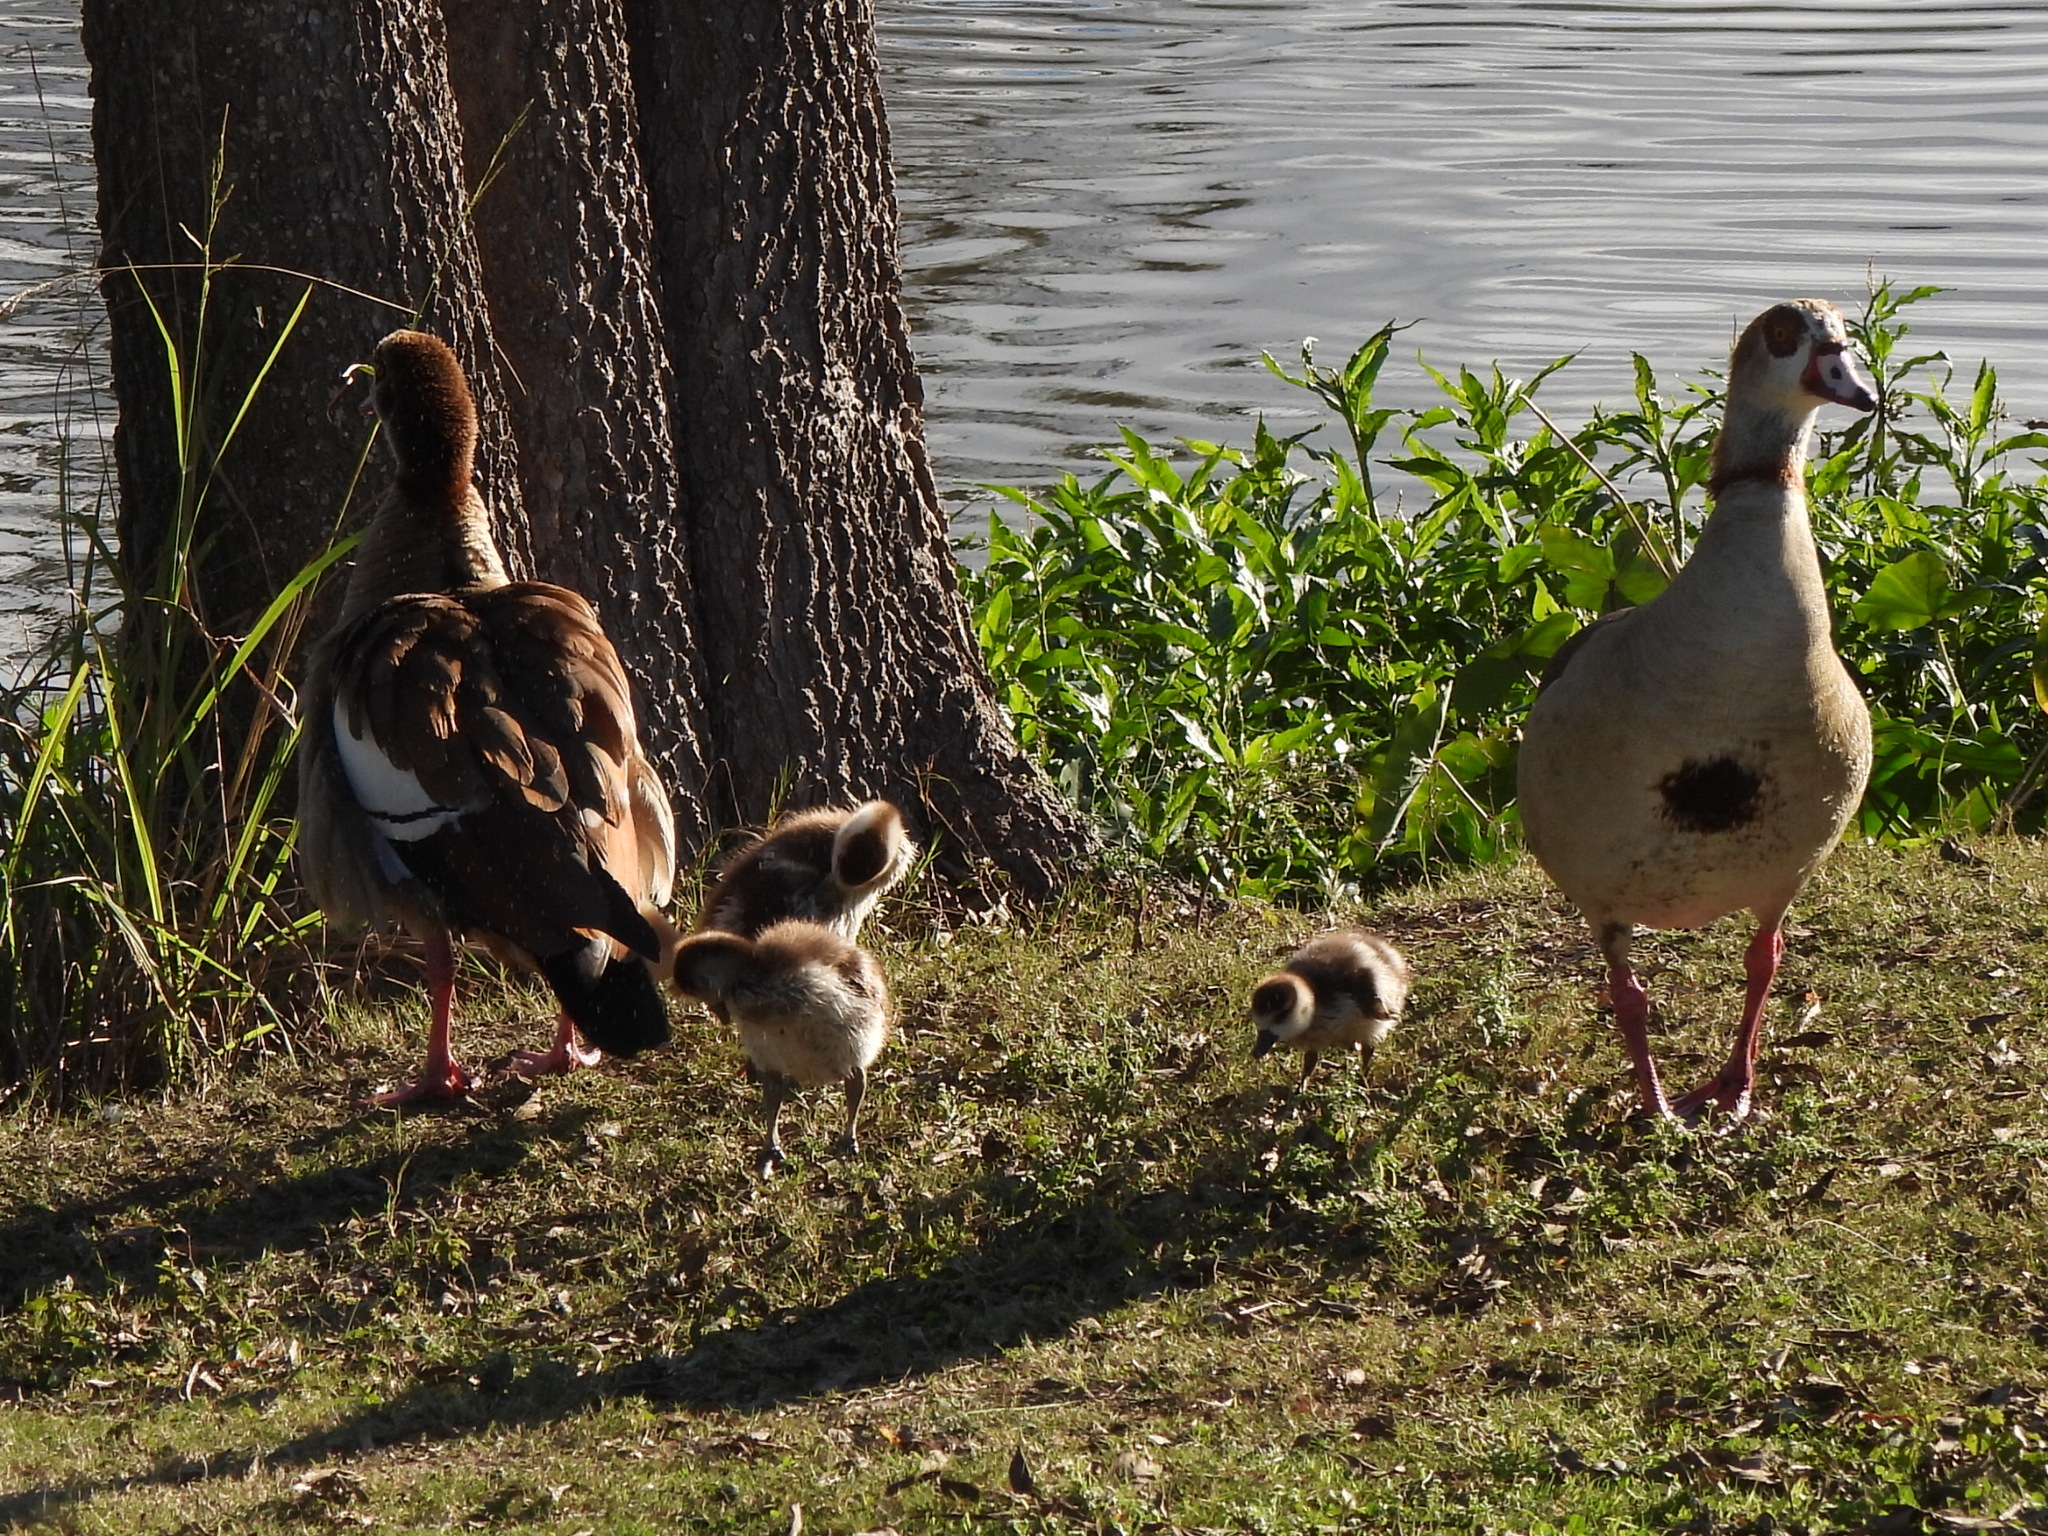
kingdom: Animalia
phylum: Chordata
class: Aves
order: Anseriformes
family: Anatidae
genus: Alopochen
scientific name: Alopochen aegyptiaca
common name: Egyptian goose
